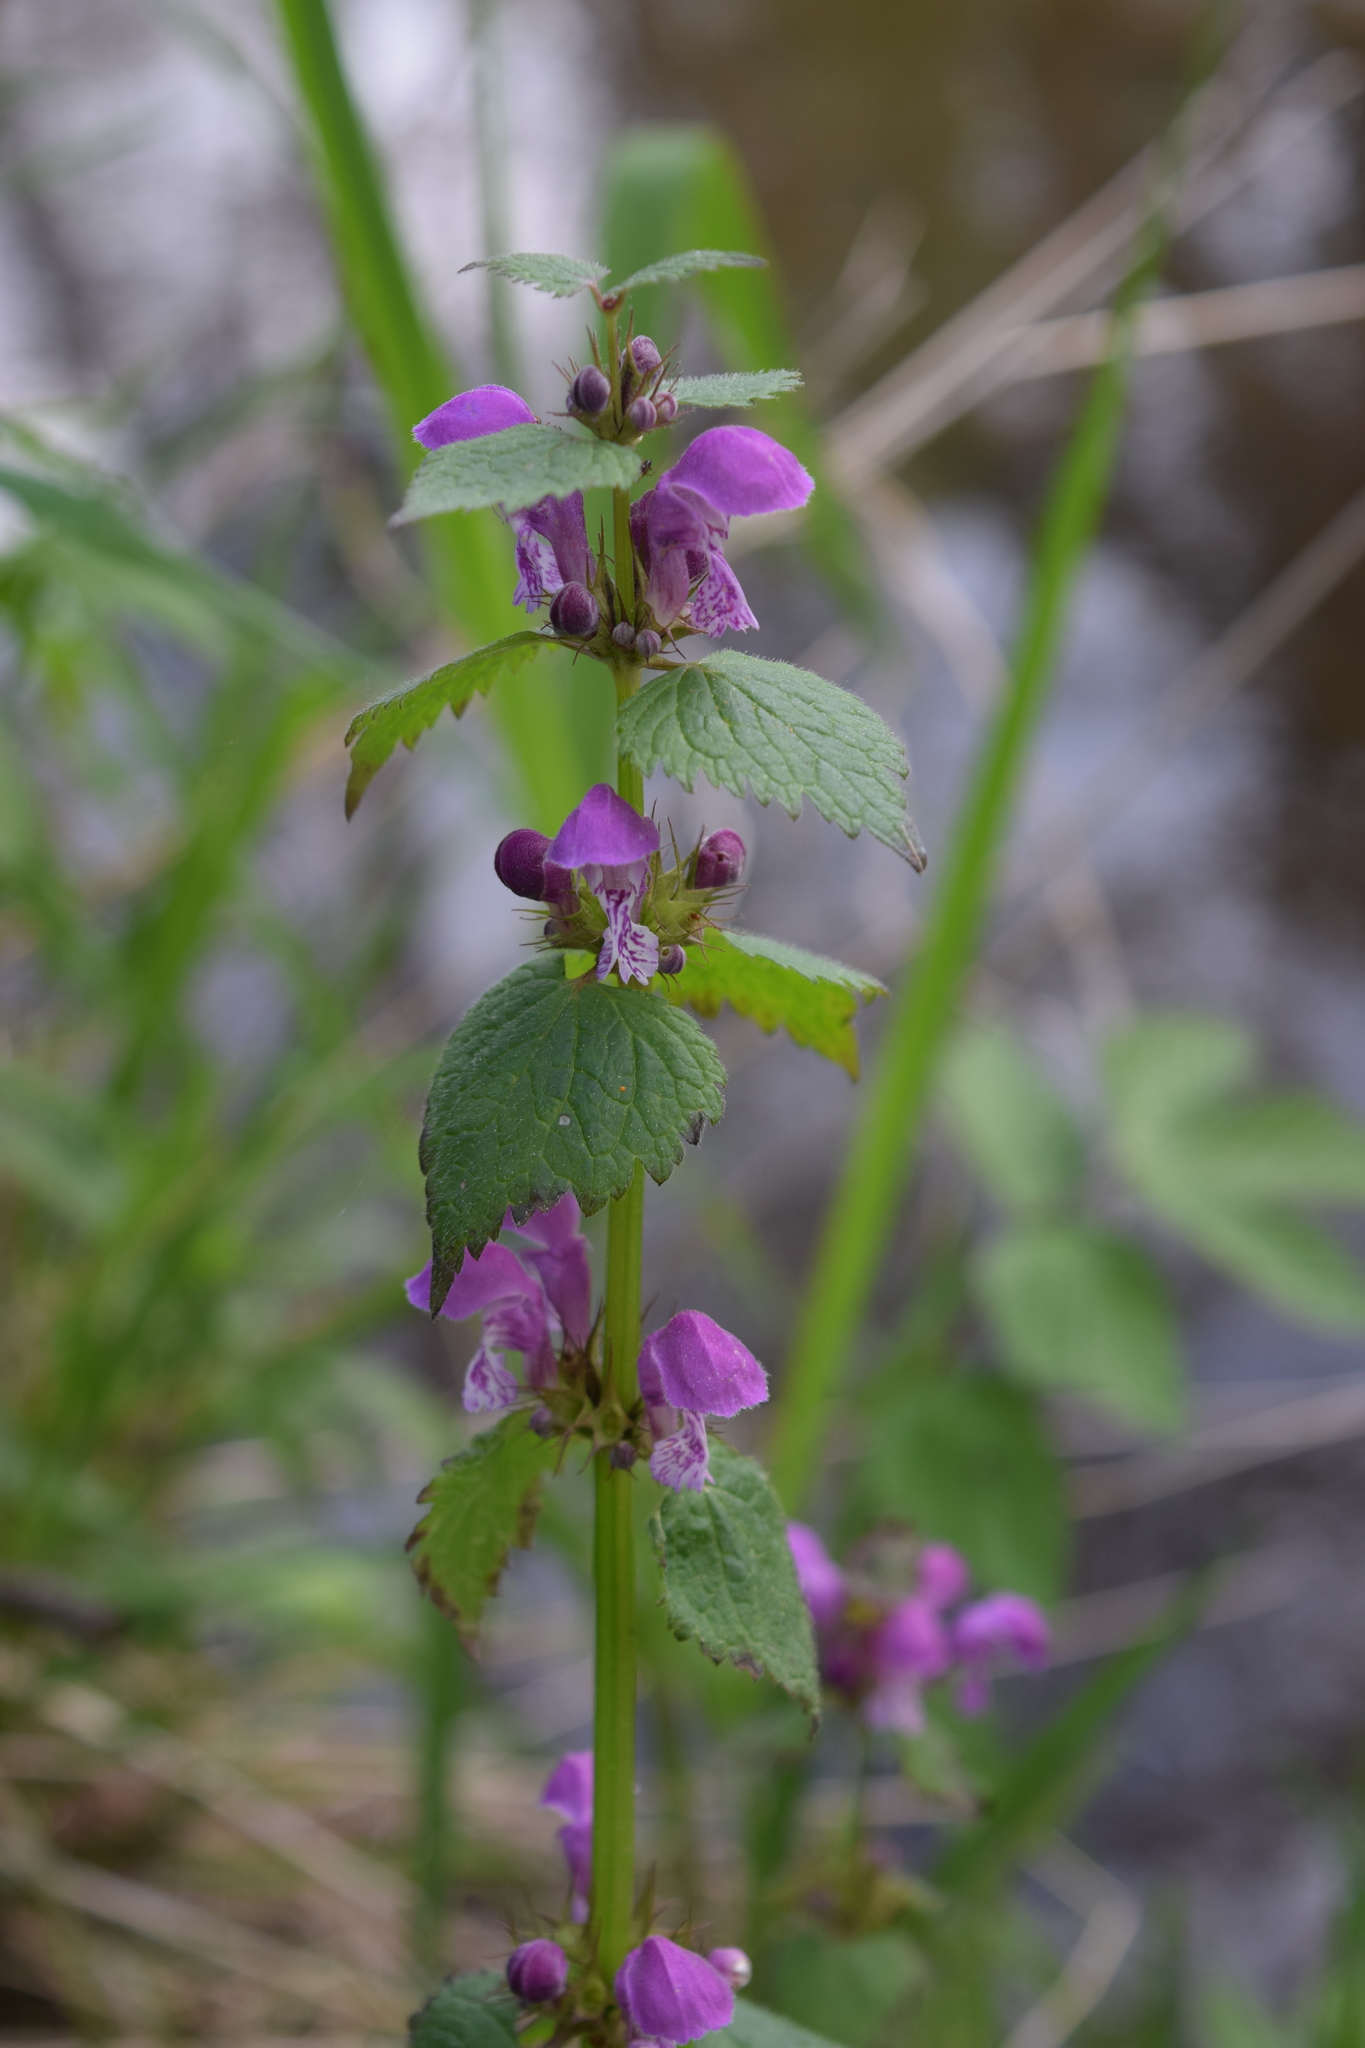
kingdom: Plantae
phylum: Tracheophyta
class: Magnoliopsida
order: Lamiales
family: Lamiaceae
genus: Lamium
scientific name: Lamium maculatum
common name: Spotted dead-nettle
